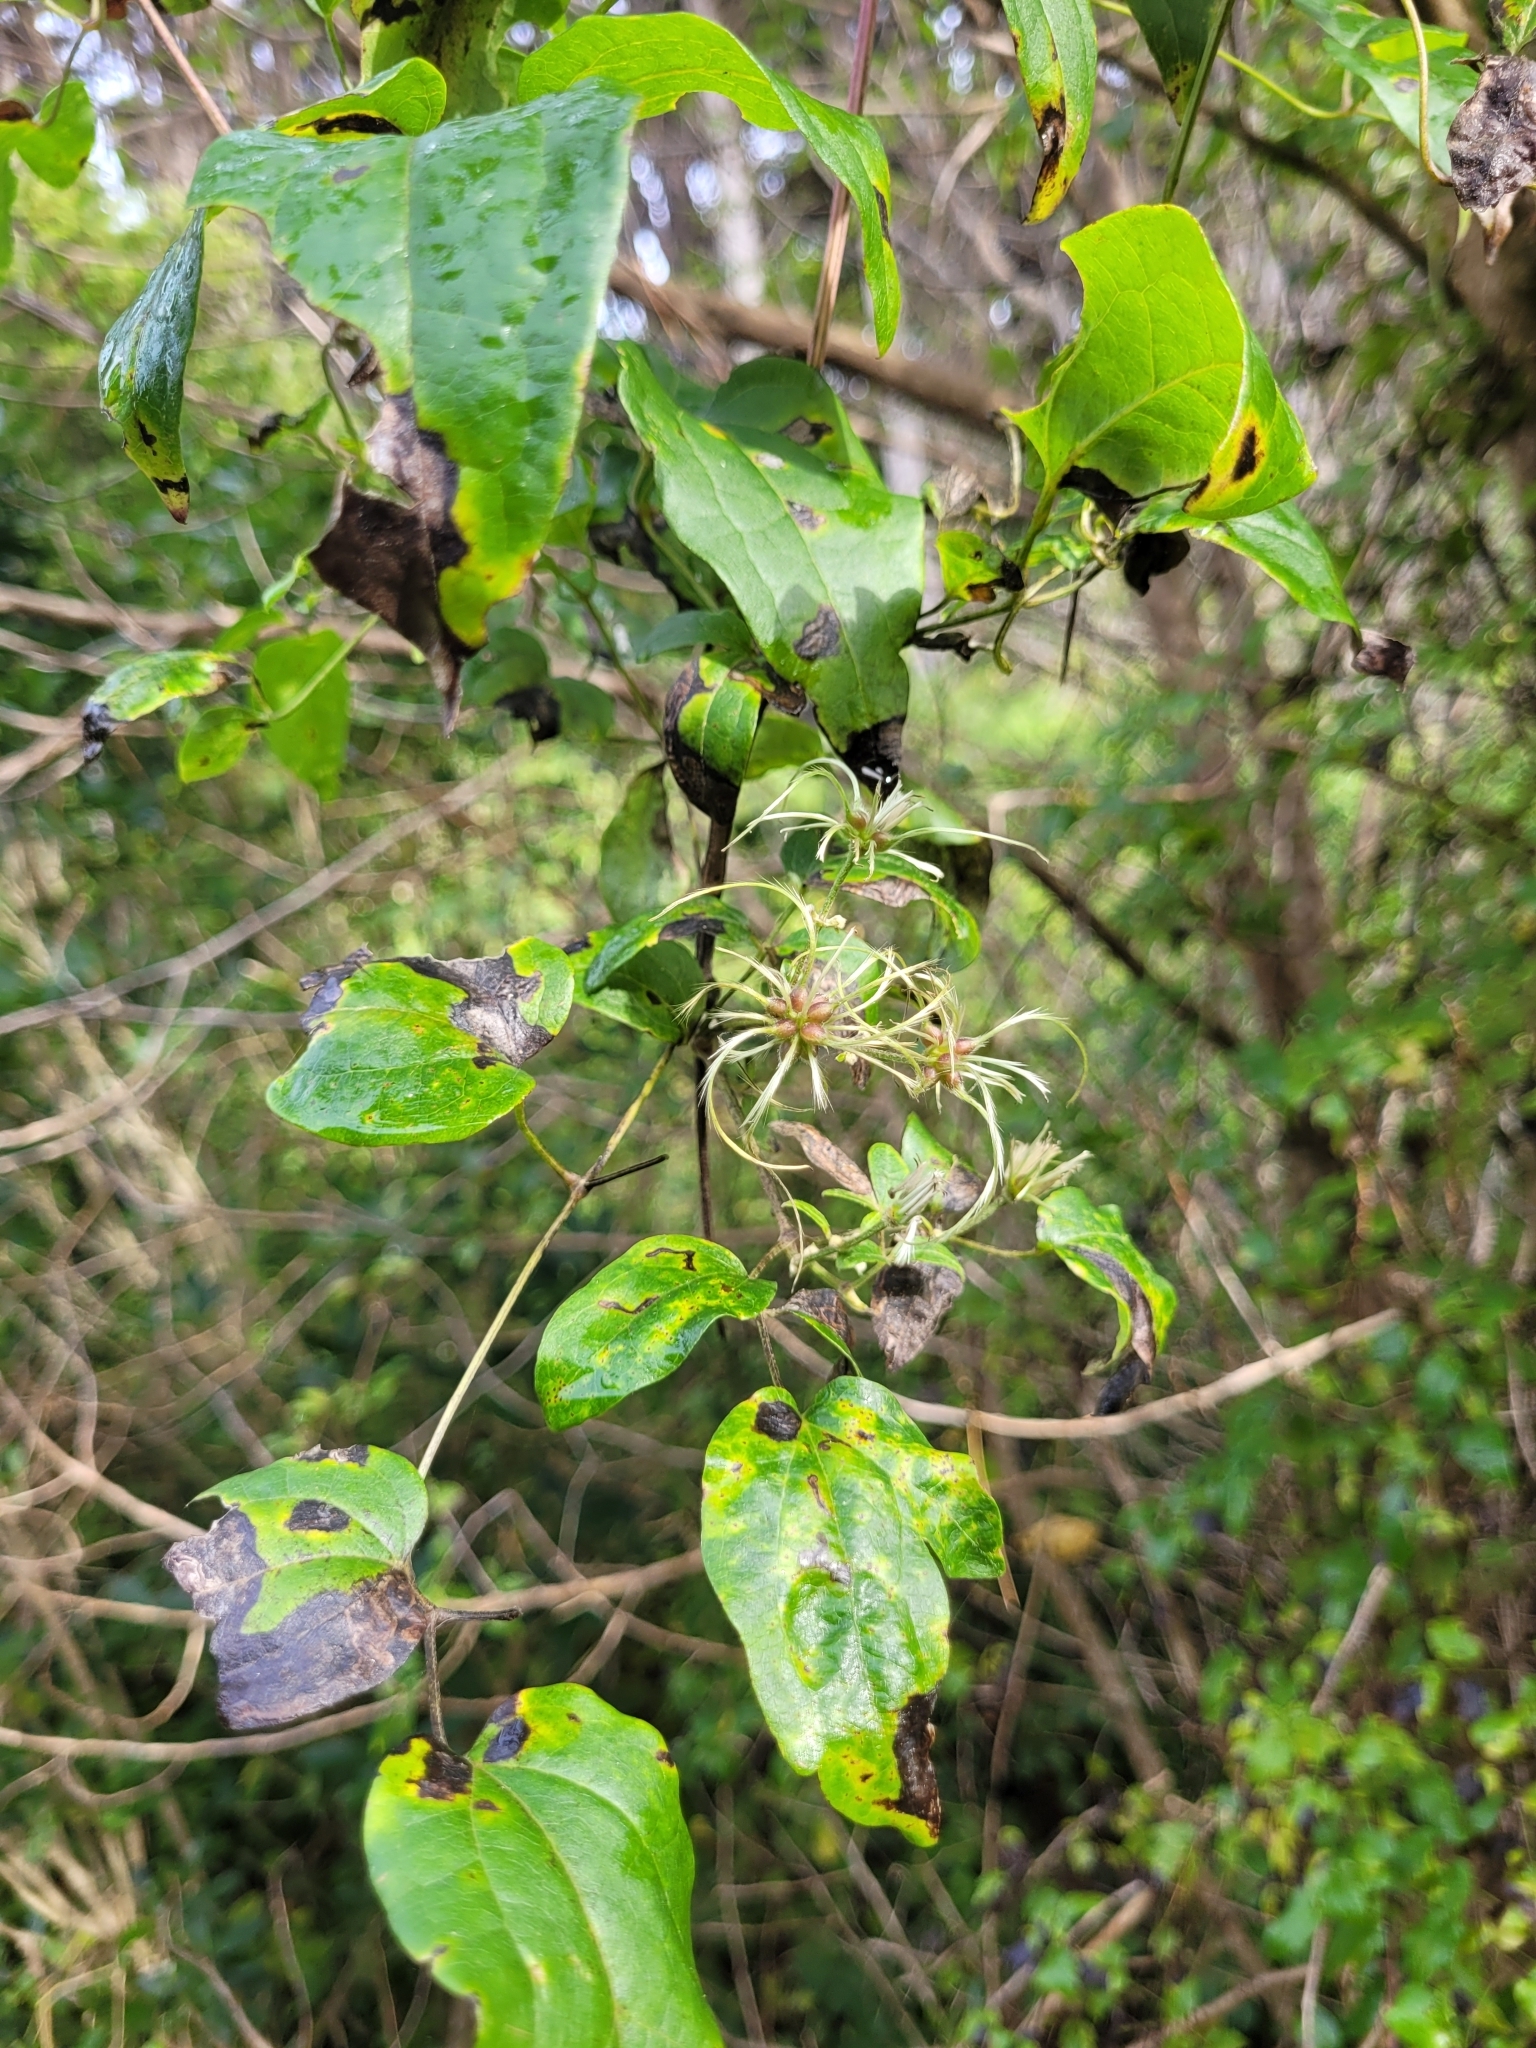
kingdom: Plantae
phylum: Tracheophyta
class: Magnoliopsida
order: Ranunculales
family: Ranunculaceae
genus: Clematis
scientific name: Clematis vitalba
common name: Evergreen clematis
